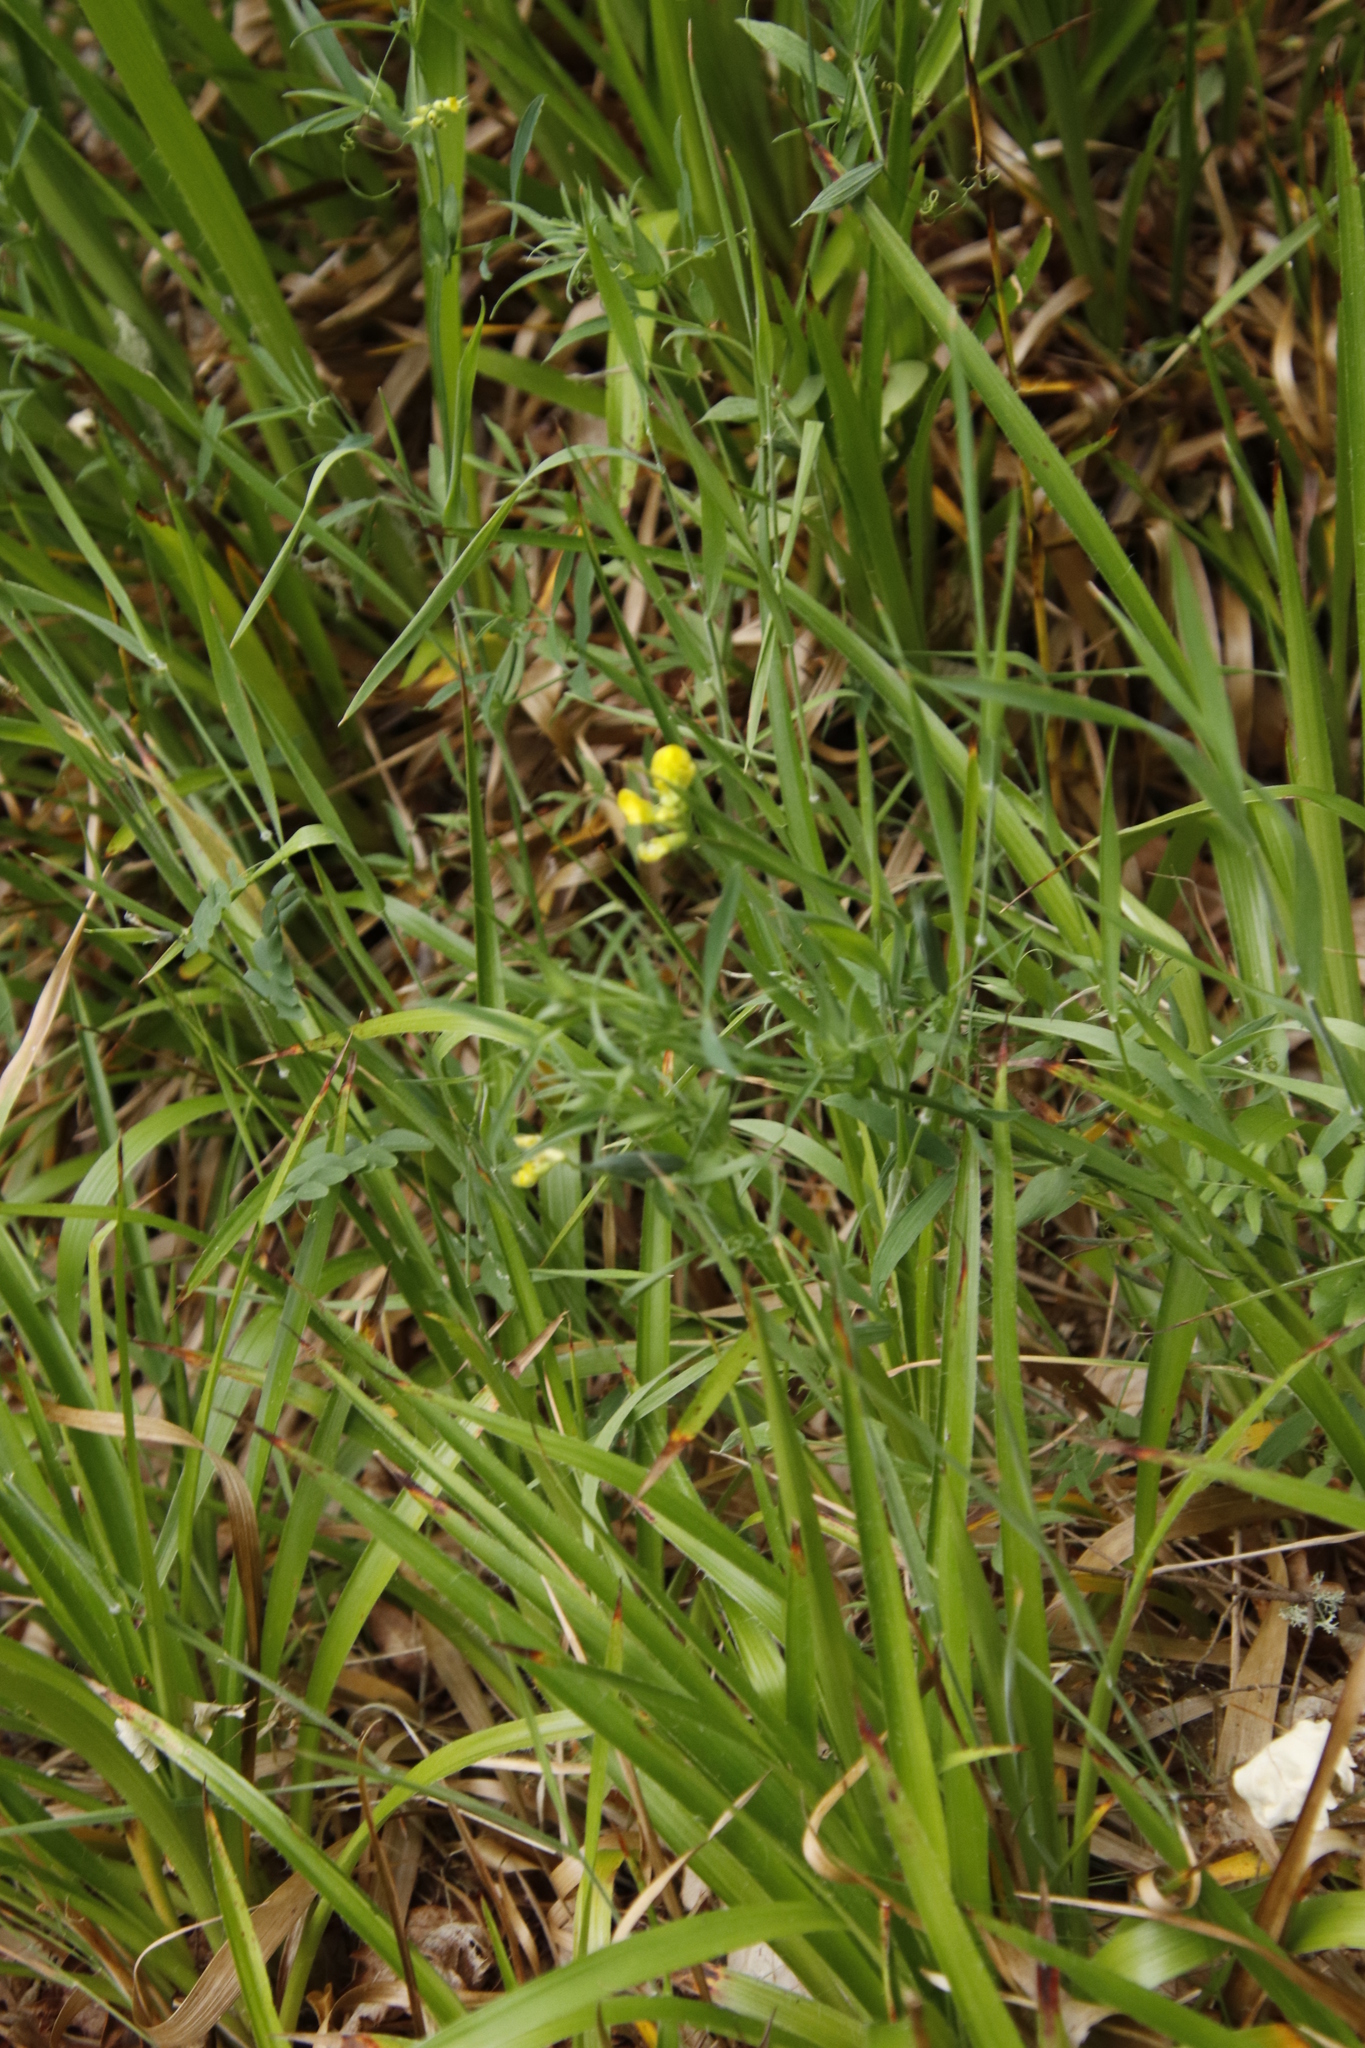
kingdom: Plantae
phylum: Tracheophyta
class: Magnoliopsida
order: Fabales
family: Fabaceae
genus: Lathyrus
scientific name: Lathyrus pratensis
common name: Meadow vetchling
